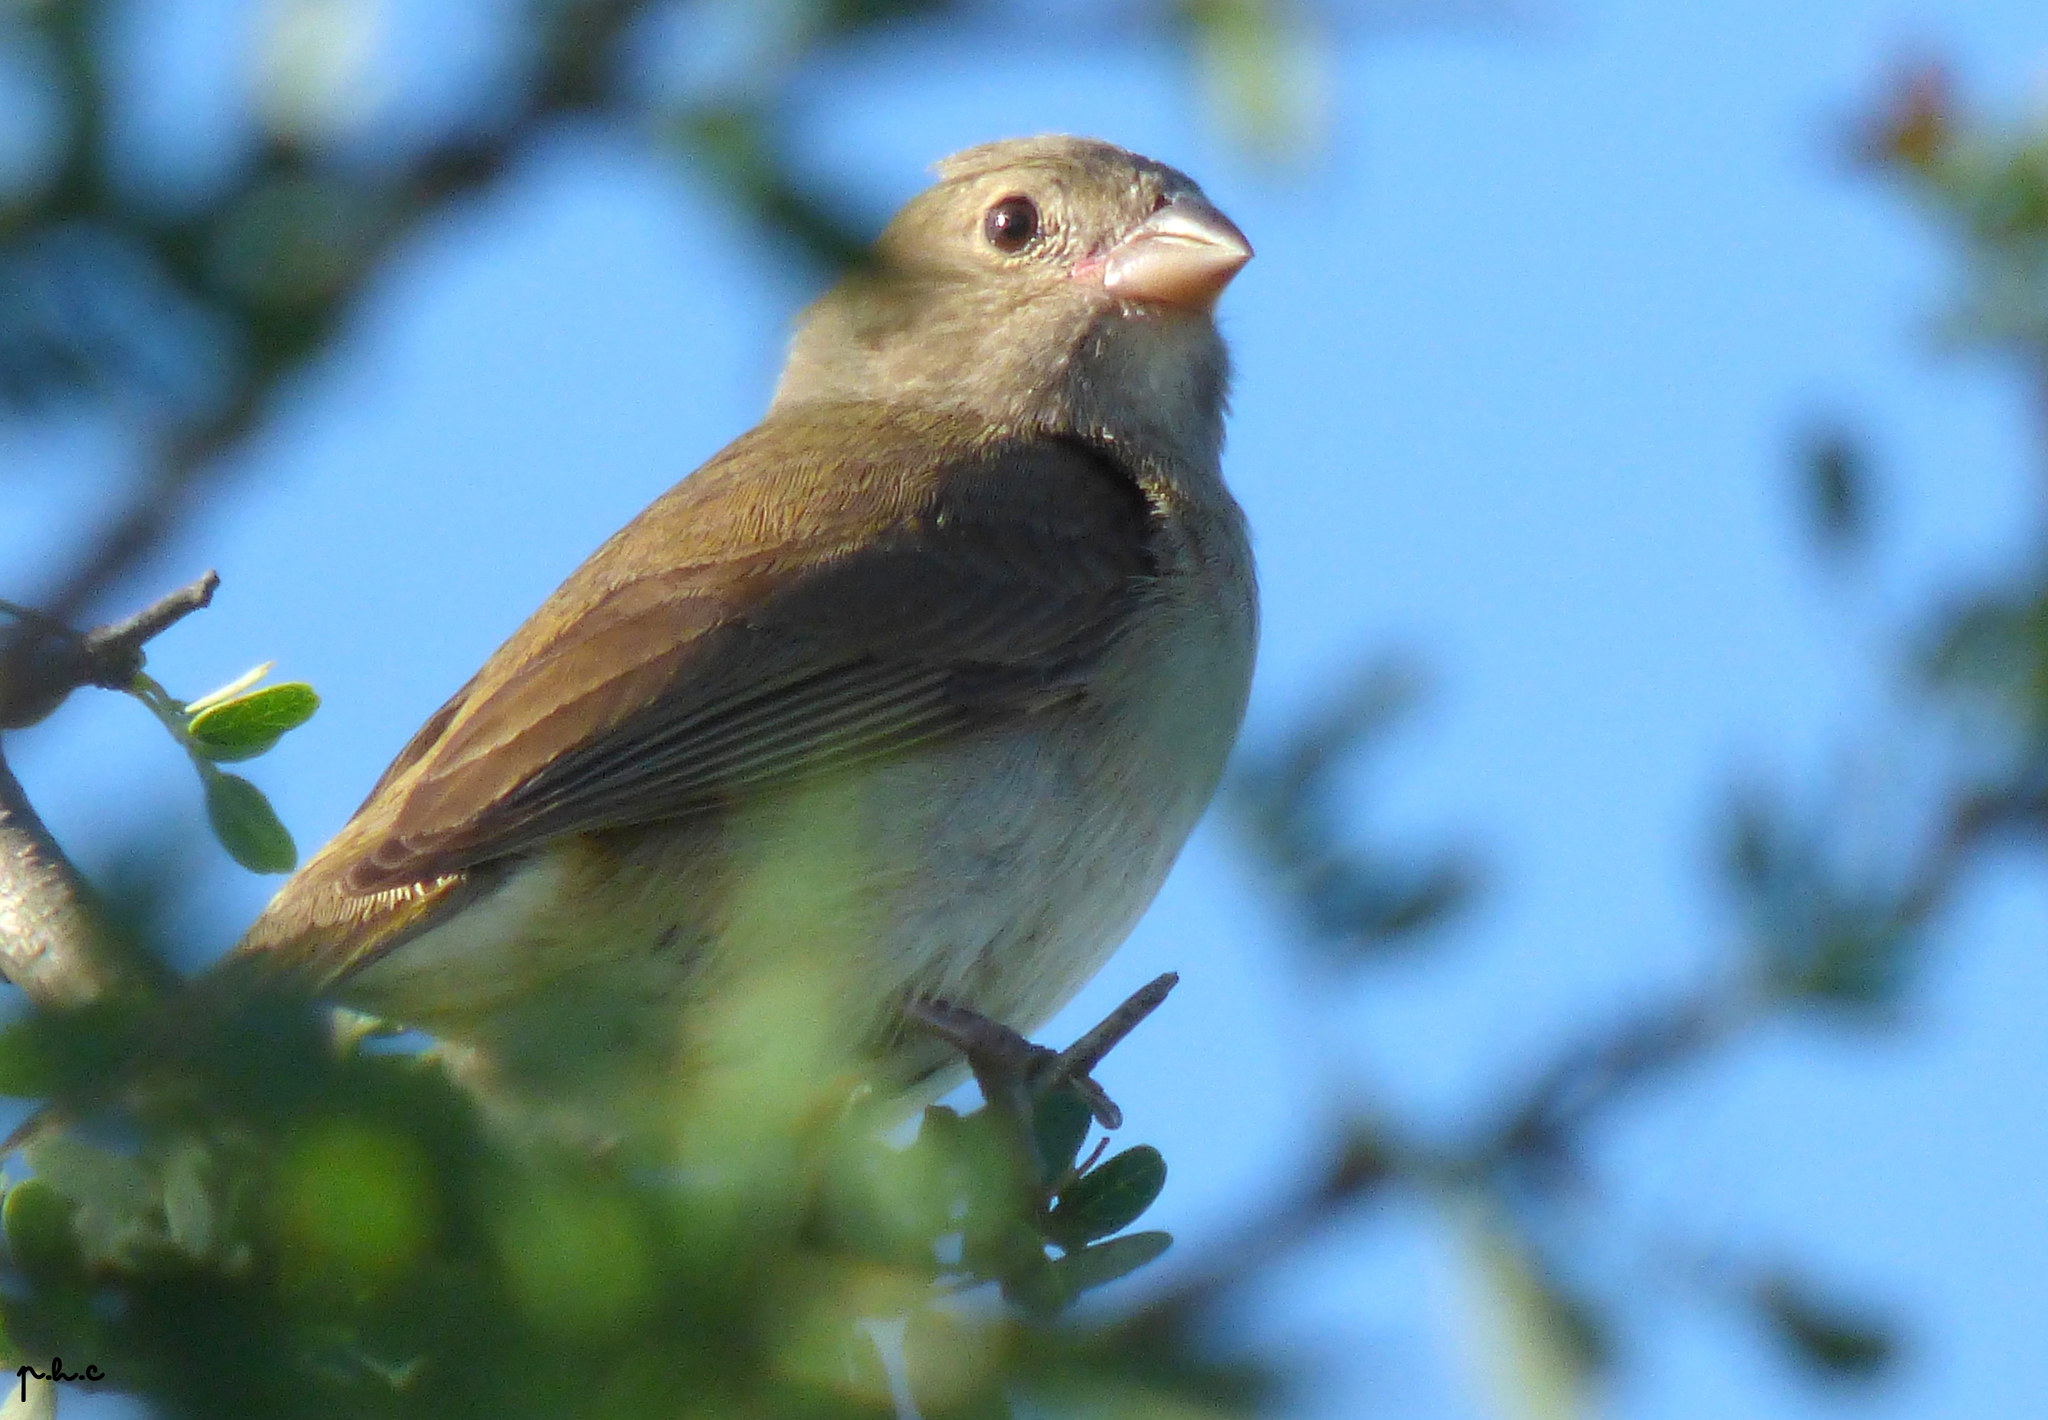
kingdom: Animalia
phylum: Chordata
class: Aves
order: Passeriformes
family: Thraupidae
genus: Asemospiza
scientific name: Asemospiza obscura
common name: Dull-colored grassquit
